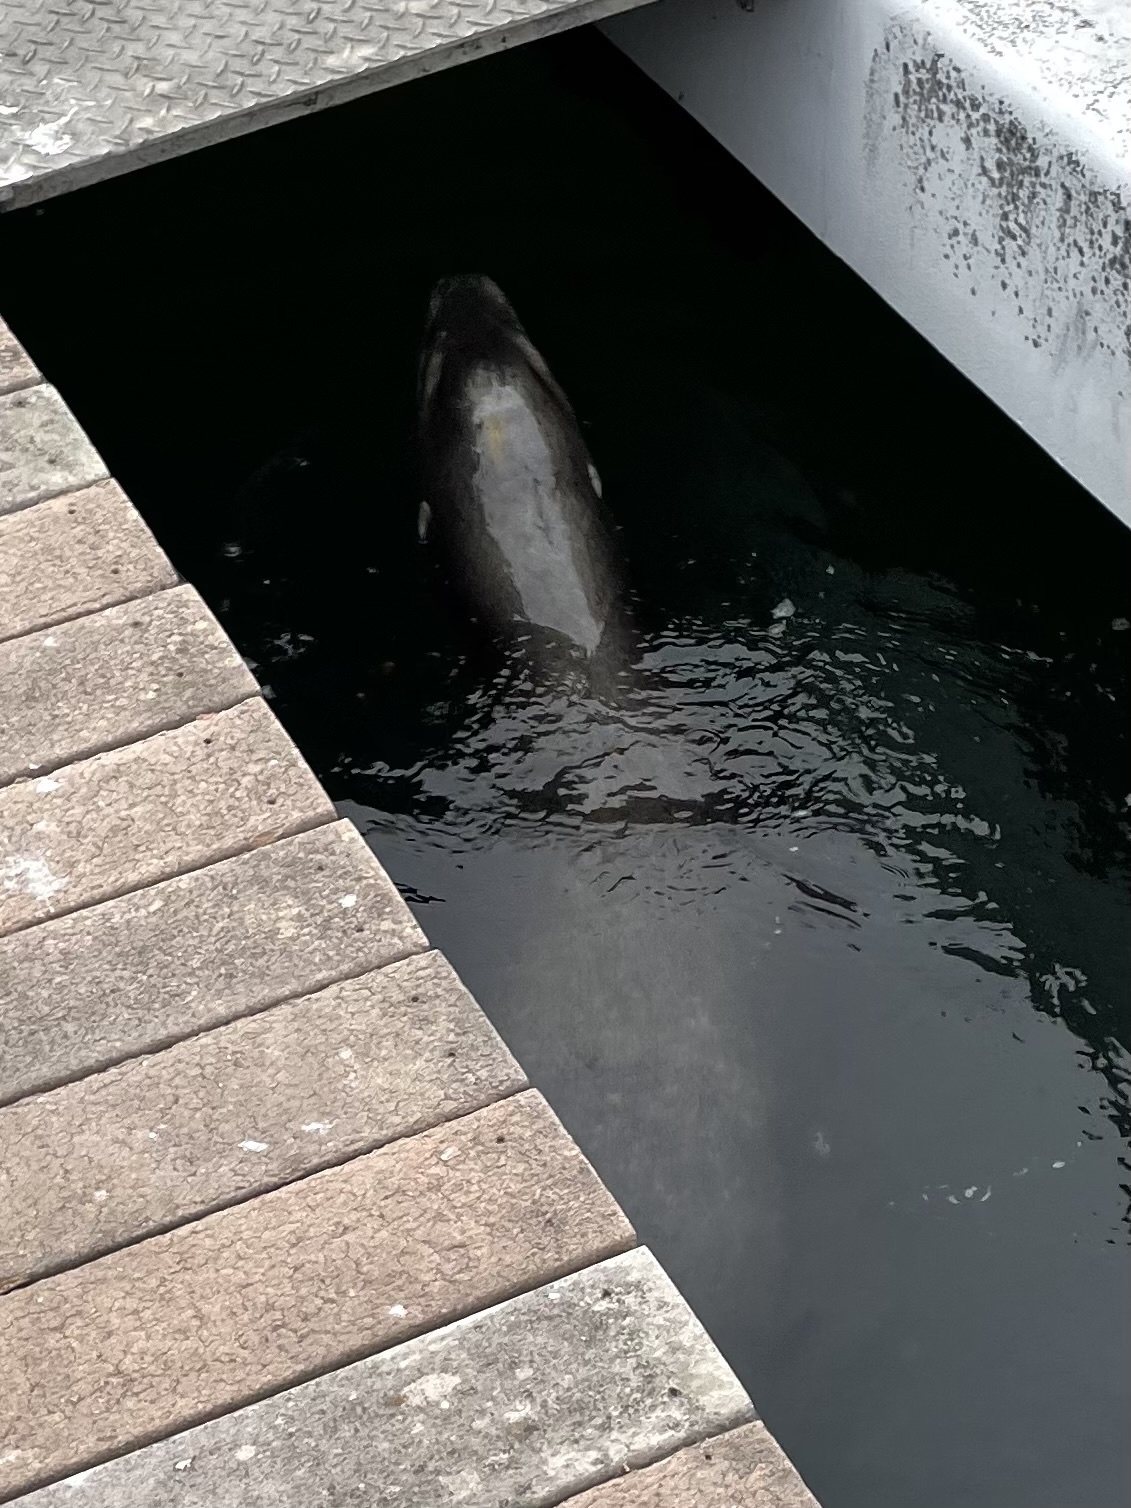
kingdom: Animalia
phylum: Chordata
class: Mammalia
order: Carnivora
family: Otariidae
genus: Zalophus
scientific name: Zalophus californianus
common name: California sea lion
